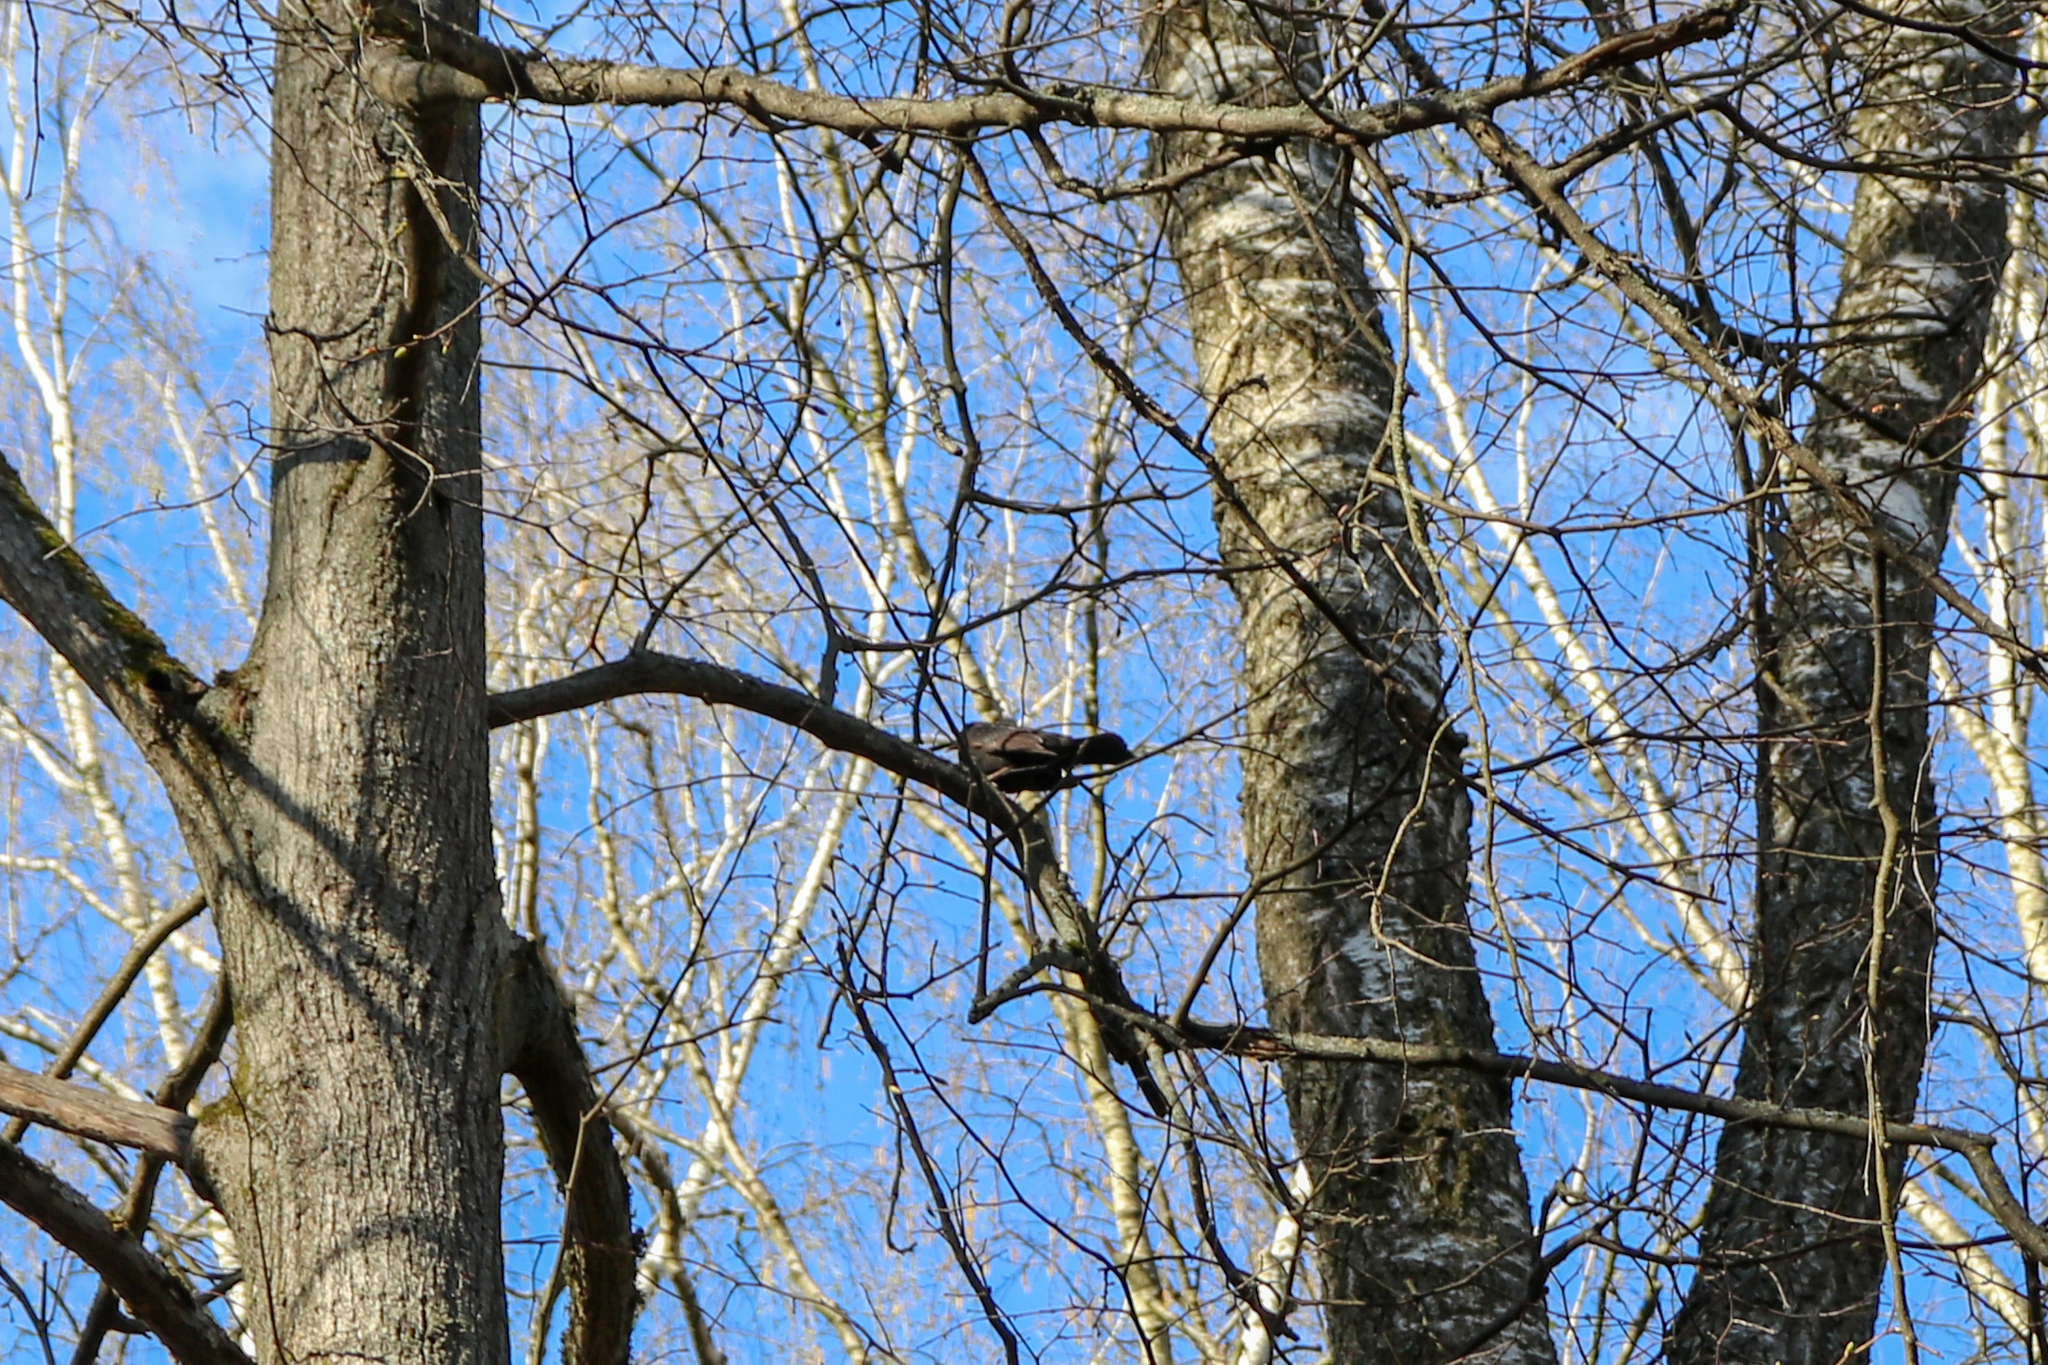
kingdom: Animalia
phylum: Chordata
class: Aves
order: Passeriformes
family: Turdidae
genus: Turdus
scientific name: Turdus merula
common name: Common blackbird
